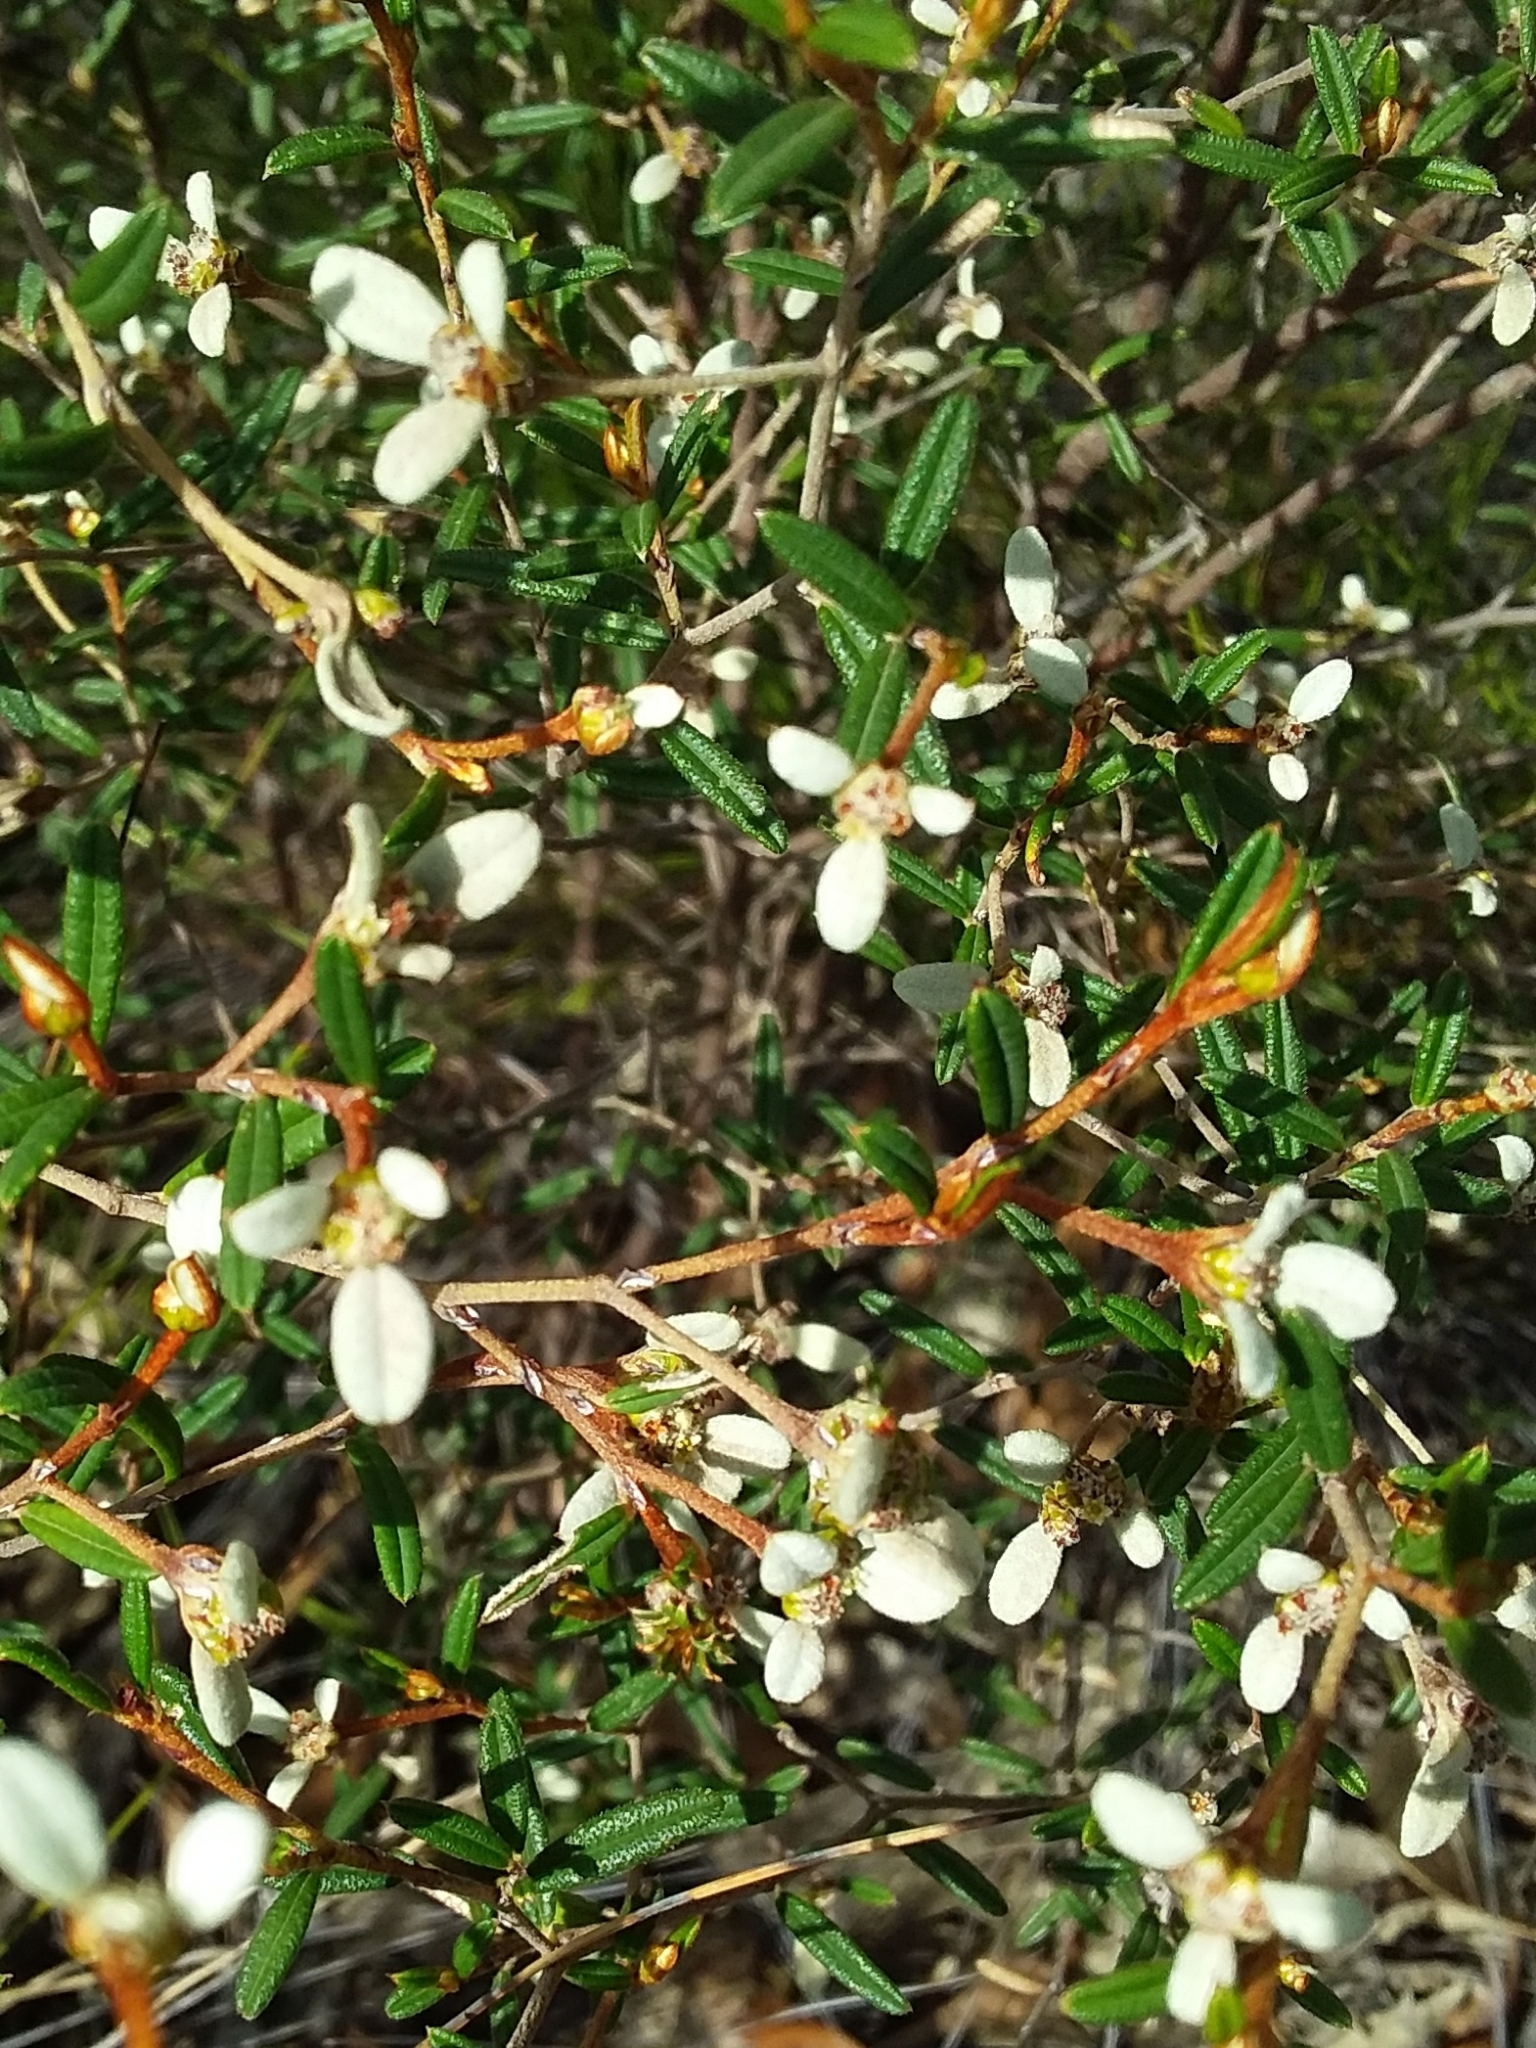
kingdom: Plantae
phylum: Tracheophyta
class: Magnoliopsida
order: Rosales
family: Rhamnaceae
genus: Spyridium
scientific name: Spyridium vexilliferum
